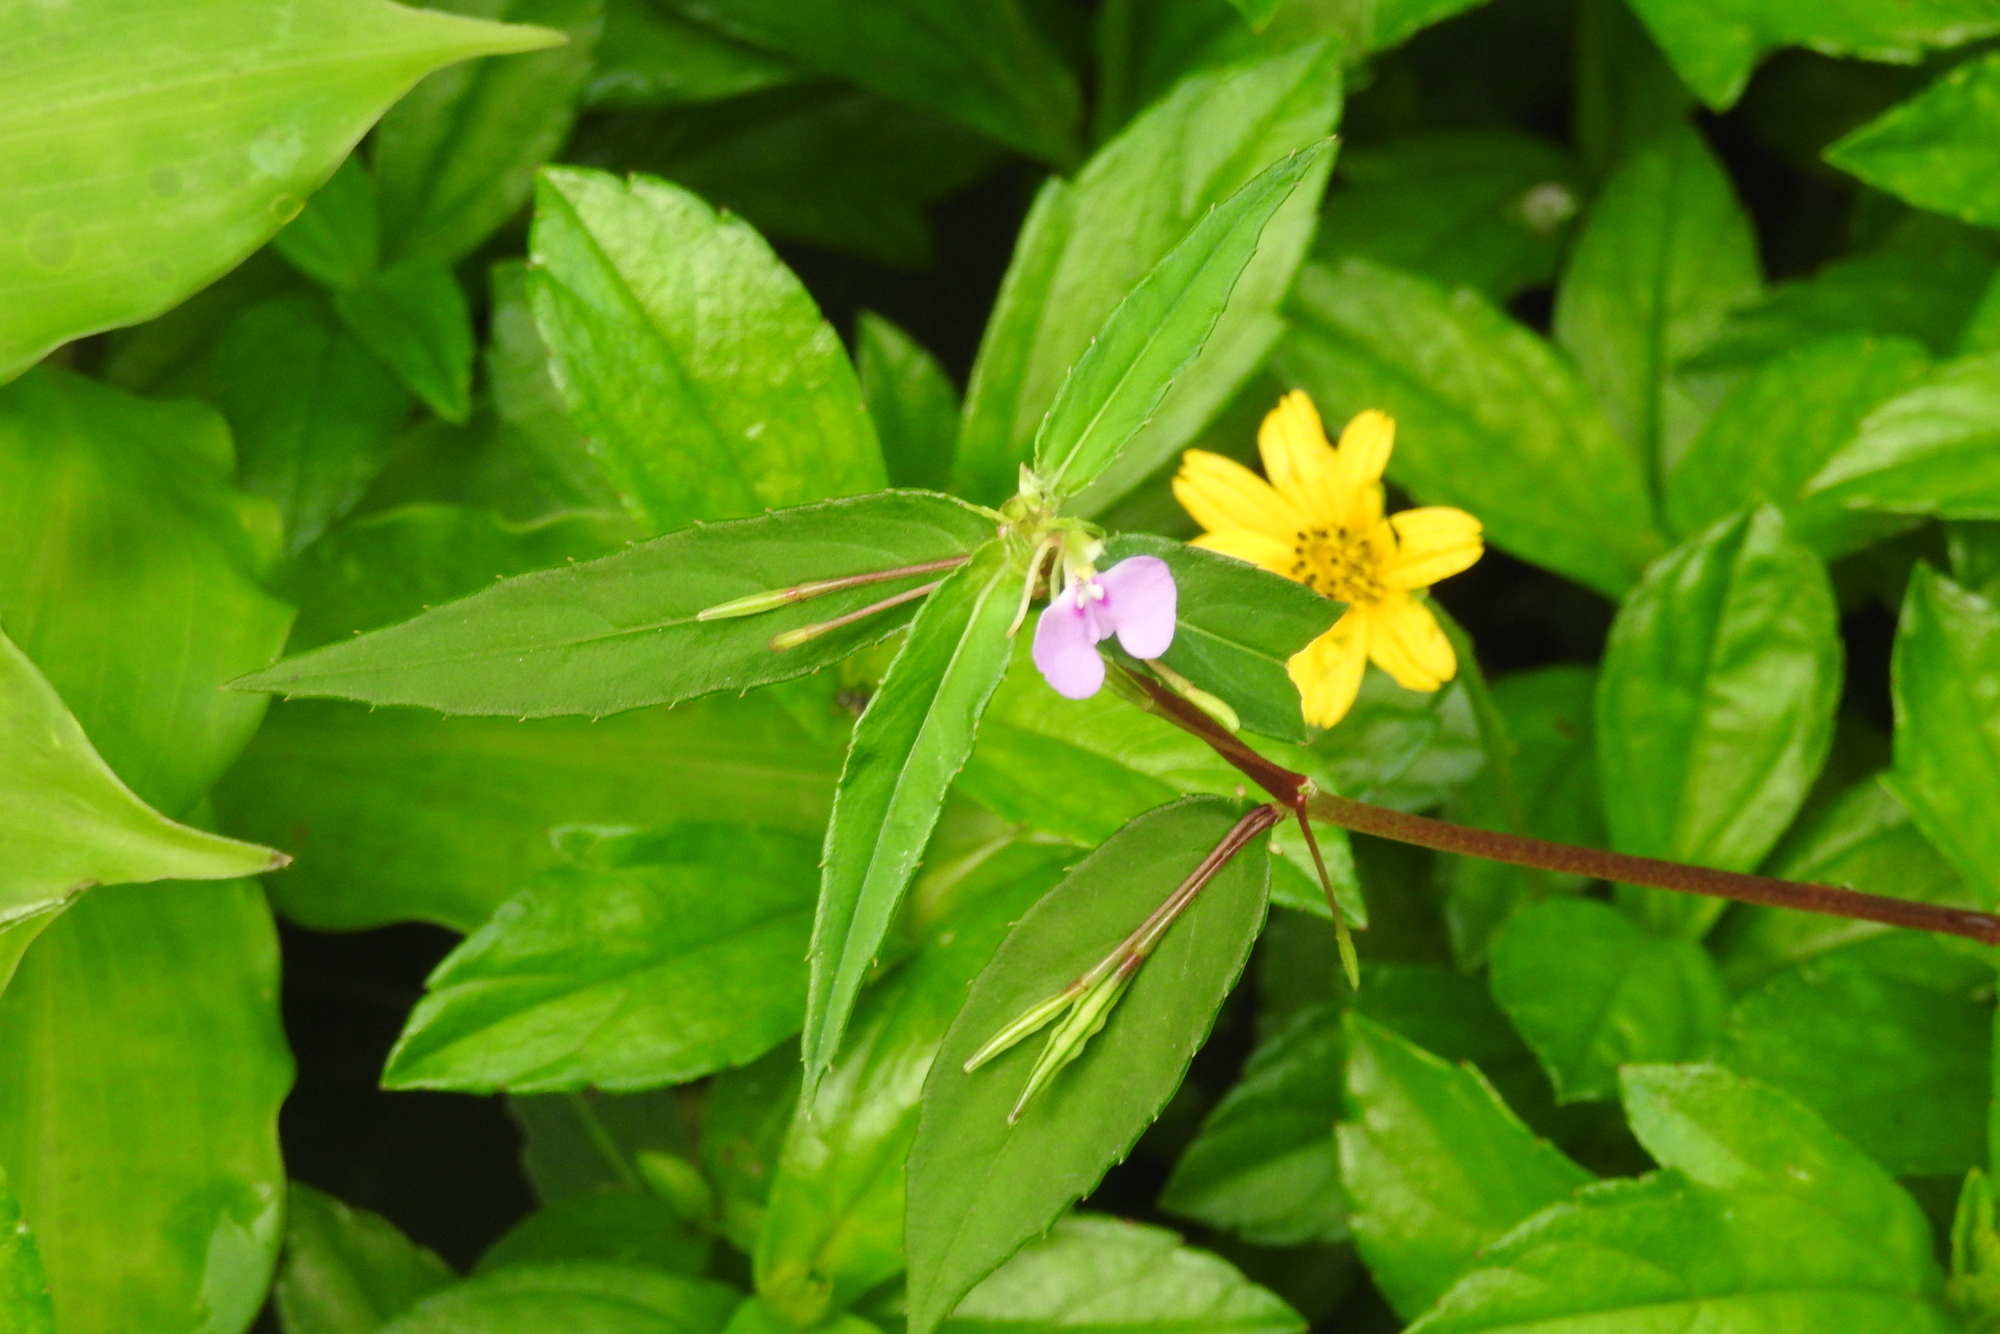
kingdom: Plantae
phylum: Tracheophyta
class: Magnoliopsida
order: Ericales
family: Balsaminaceae
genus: Impatiens
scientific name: Impatiens minor
